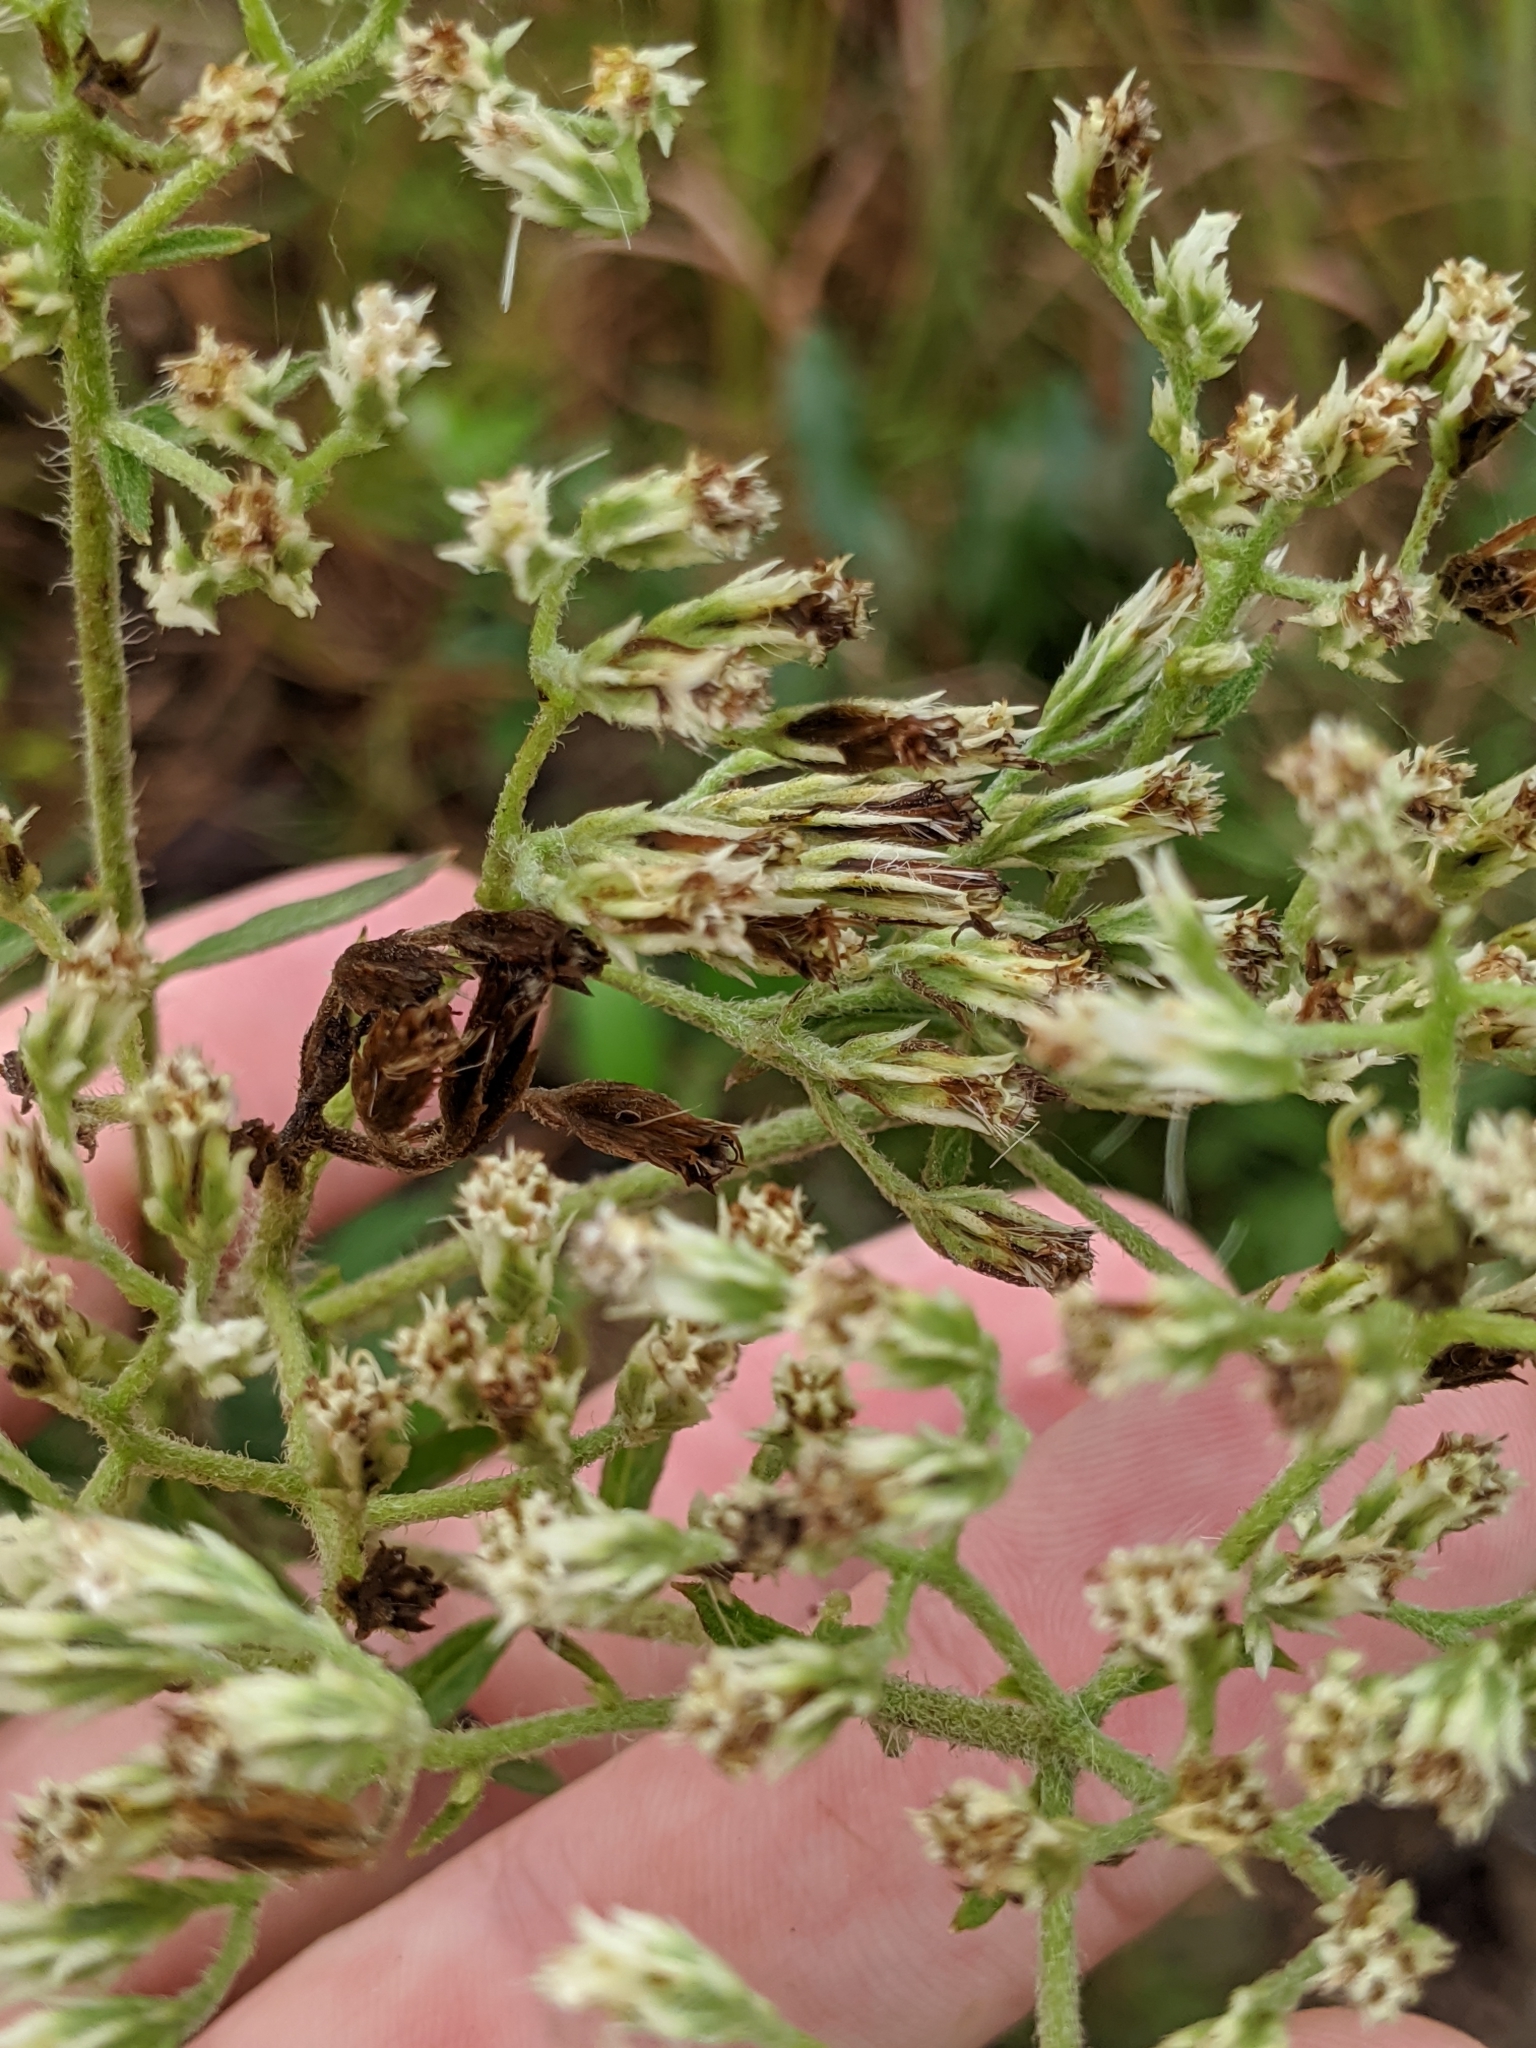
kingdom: Plantae
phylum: Tracheophyta
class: Magnoliopsida
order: Asterales
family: Asteraceae
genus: Eupatorium
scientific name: Eupatorium album
